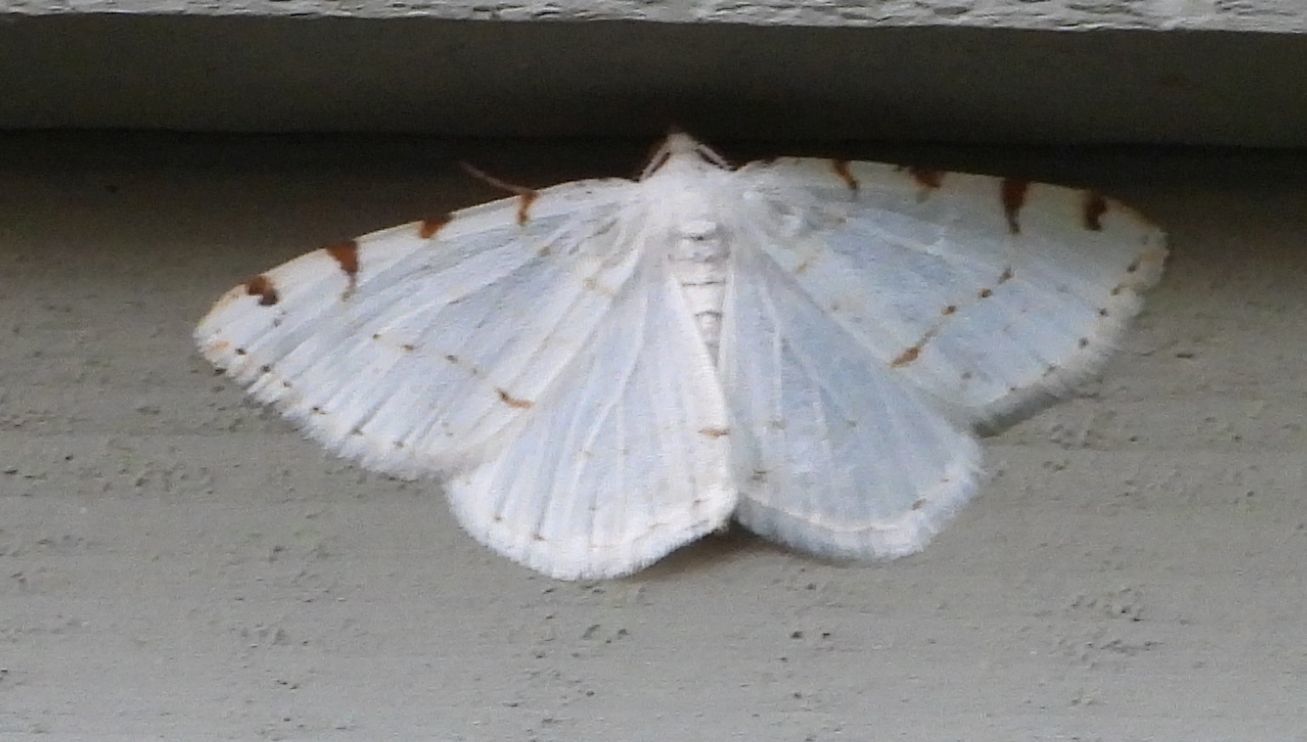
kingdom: Animalia
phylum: Arthropoda
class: Insecta
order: Lepidoptera
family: Geometridae
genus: Macaria
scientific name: Macaria pustularia
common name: Lesser maple spanworm moth
